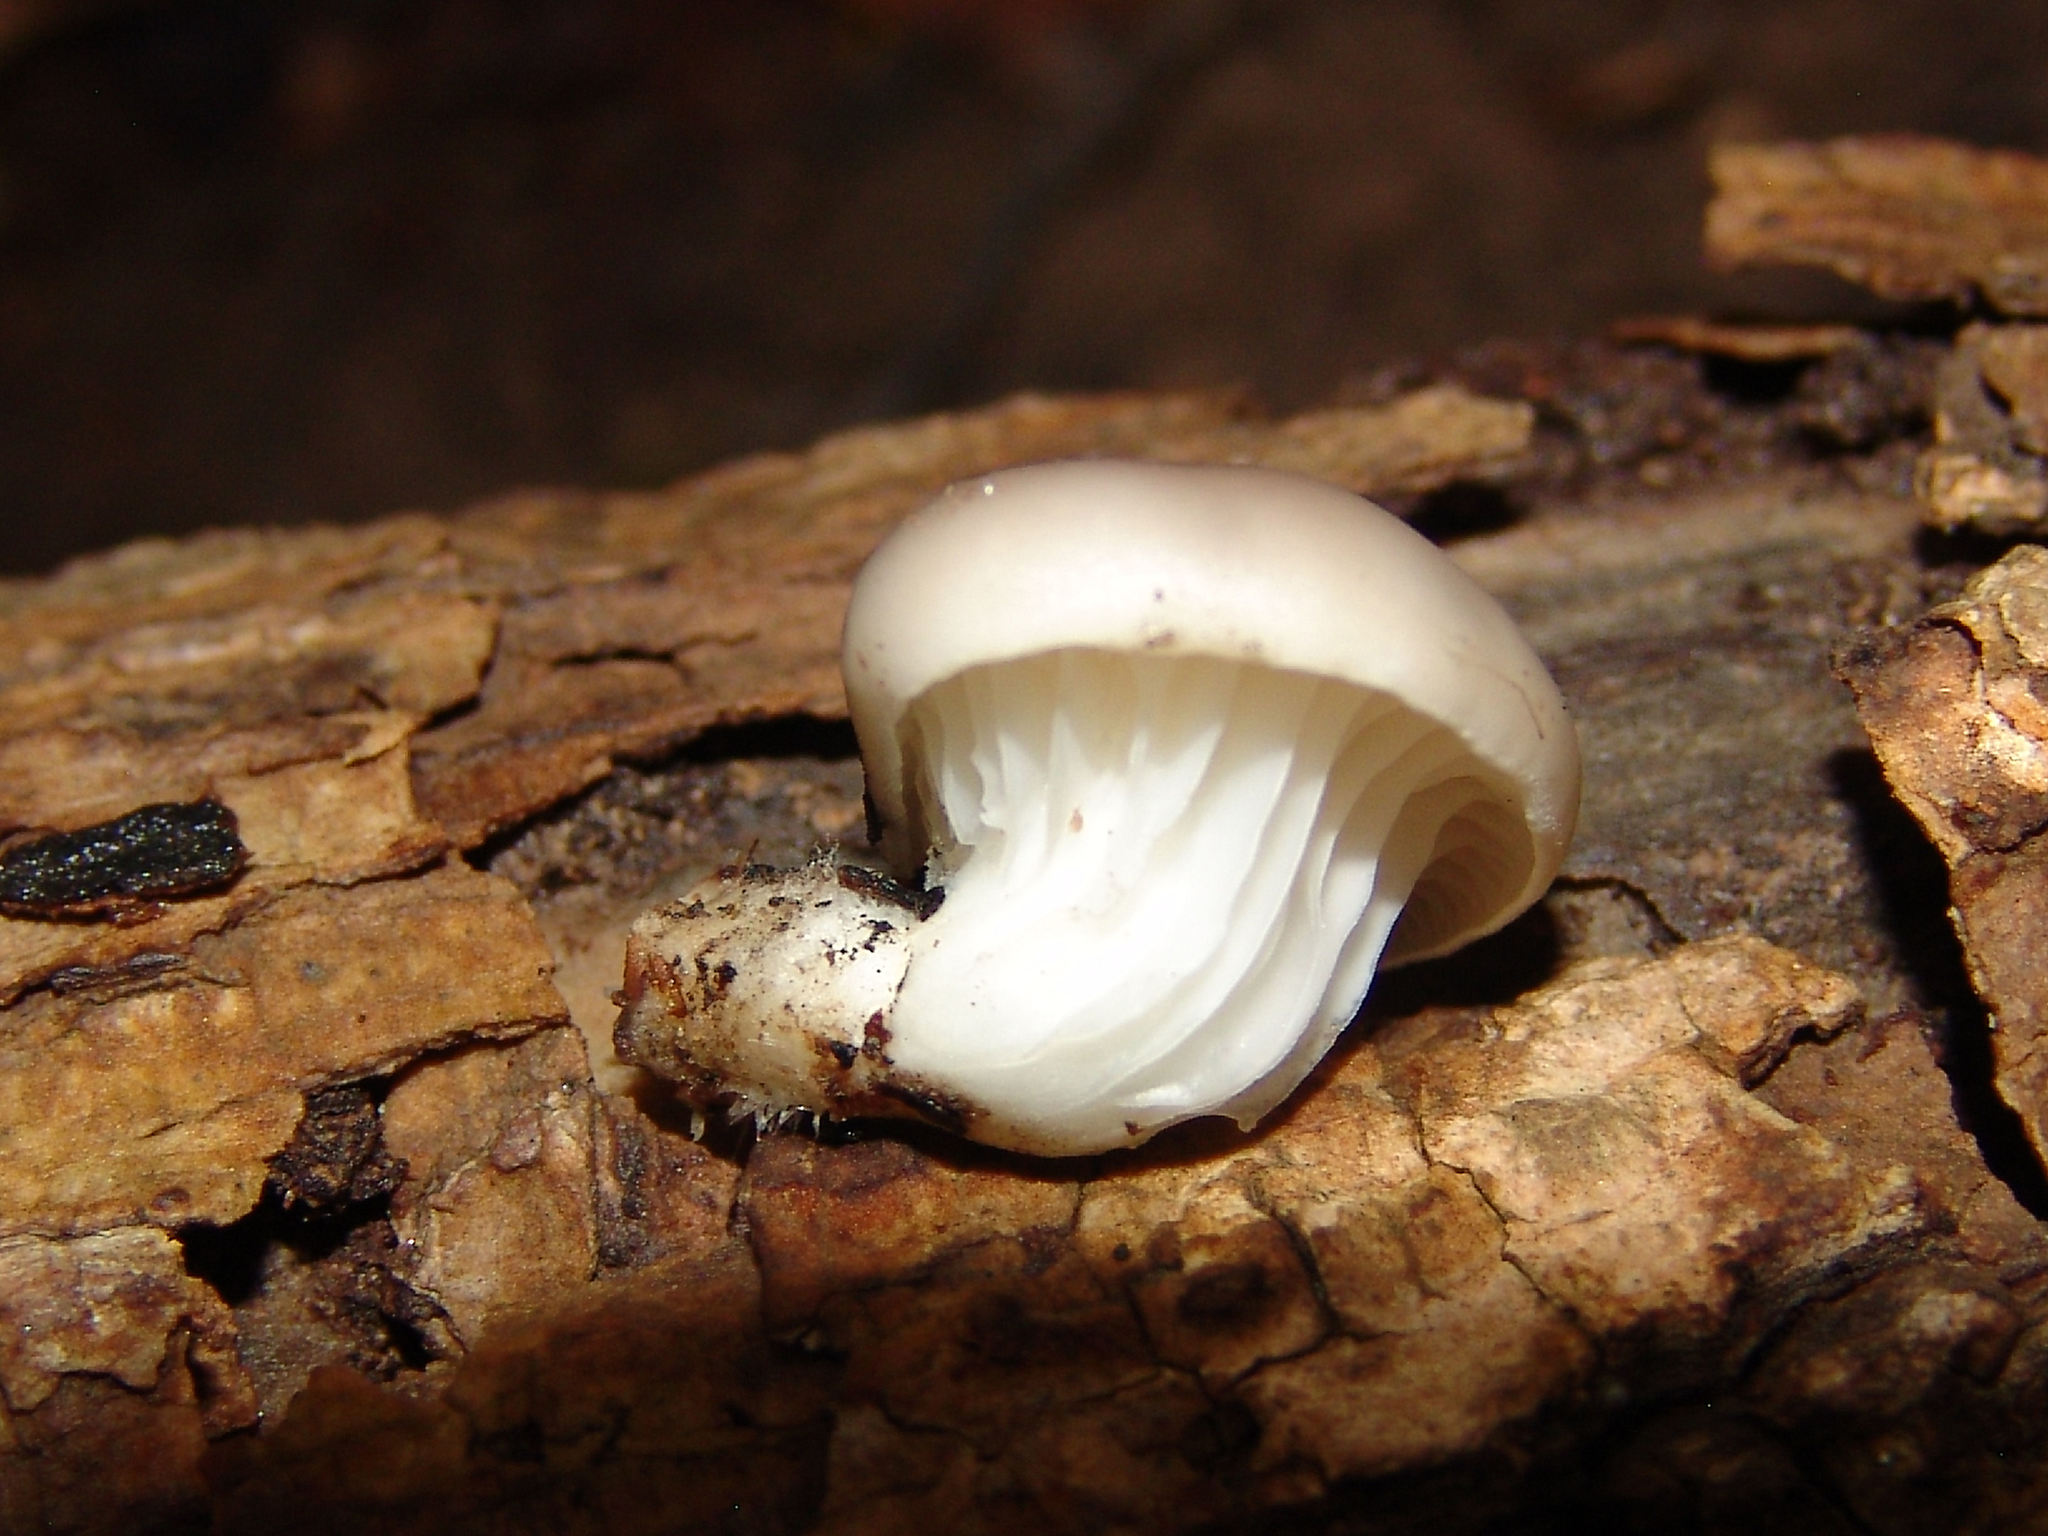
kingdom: Fungi
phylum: Basidiomycota
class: Agaricomycetes
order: Agaricales
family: Pleurotaceae
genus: Pleurotus
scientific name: Pleurotus ostreatus
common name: Oyster mushroom
